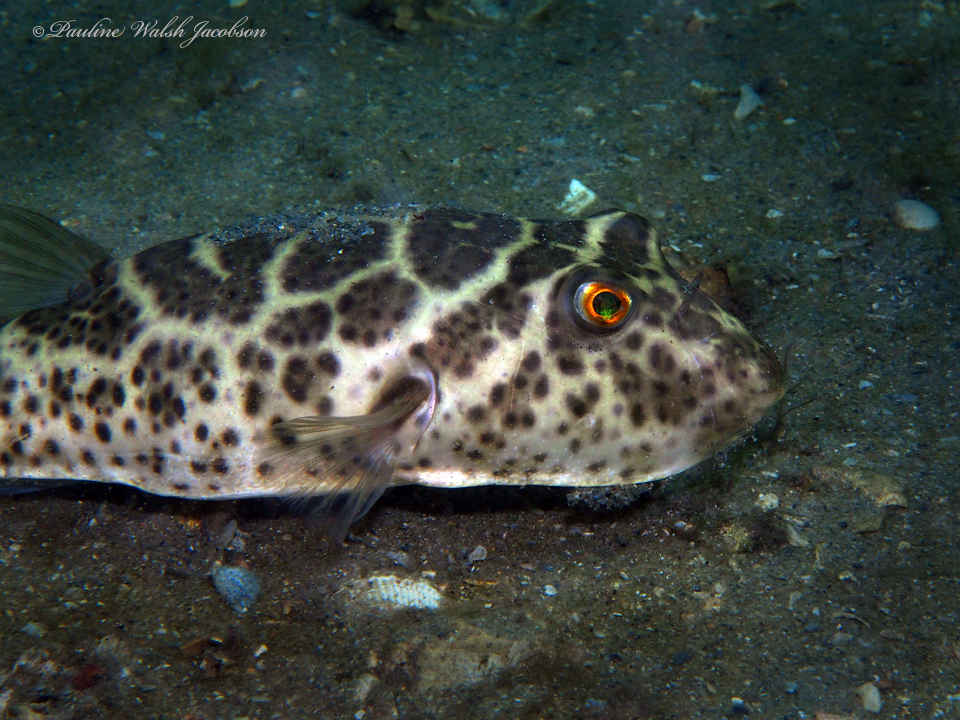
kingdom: Animalia
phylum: Chordata
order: Tetraodontiformes
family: Tetraodontidae
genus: Sphoeroides
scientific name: Sphoeroides testudineus
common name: Checkered puffer
